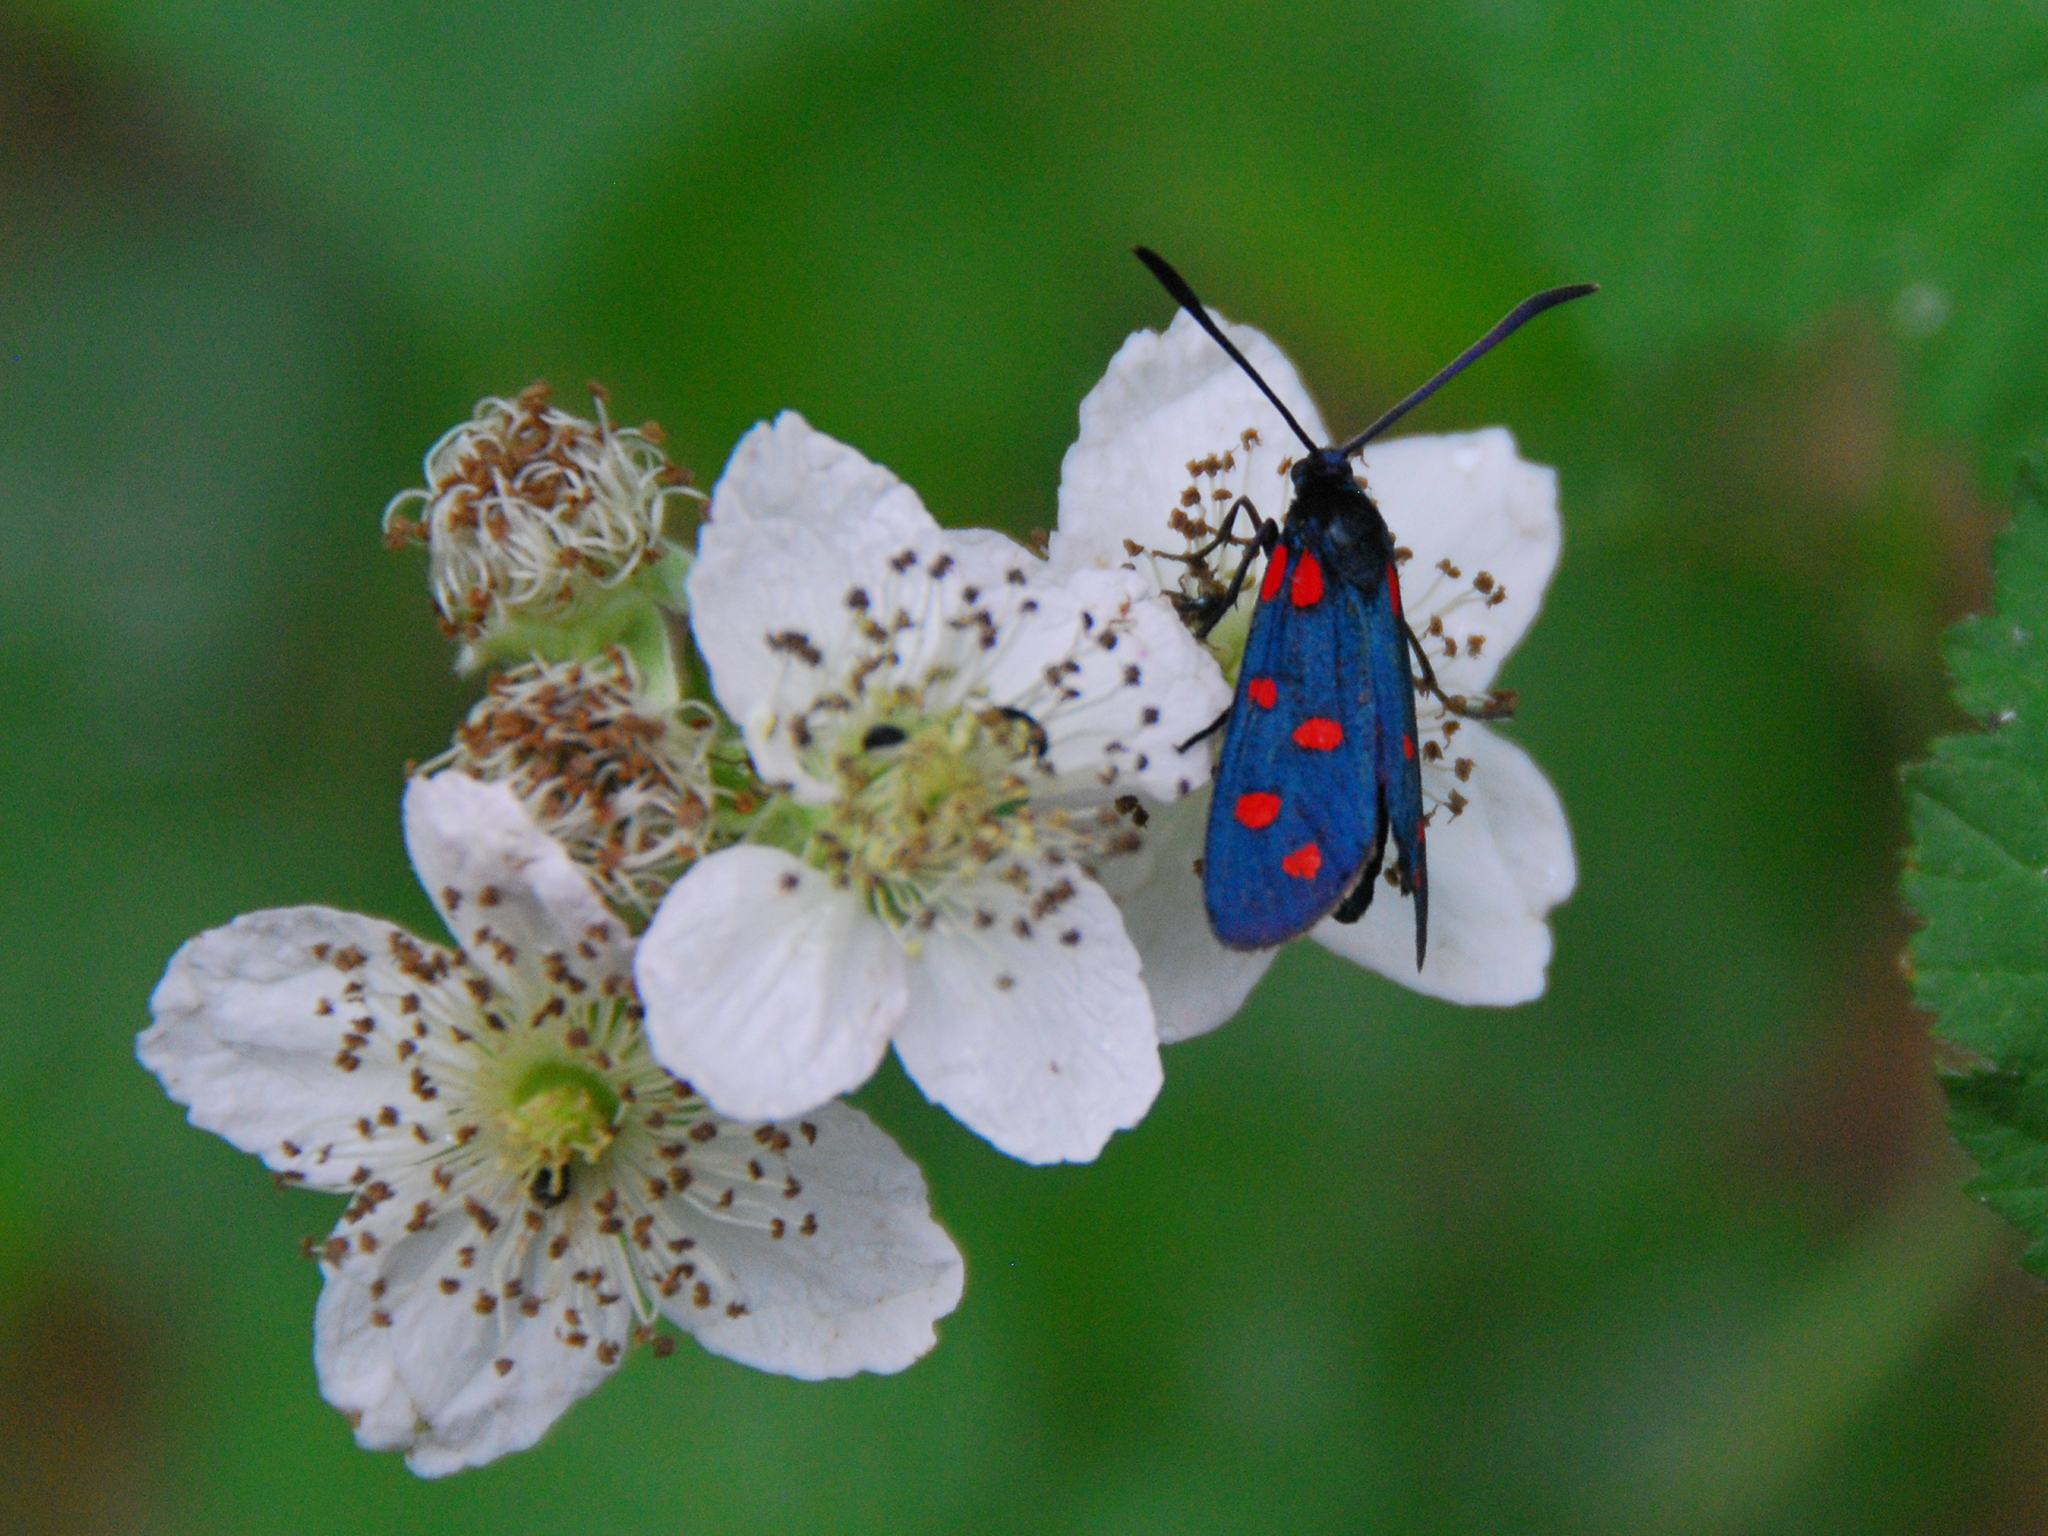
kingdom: Animalia
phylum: Arthropoda
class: Insecta
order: Lepidoptera
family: Zygaenidae
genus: Zygaena
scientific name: Zygaena transalpina
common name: Southern six spot burnet
